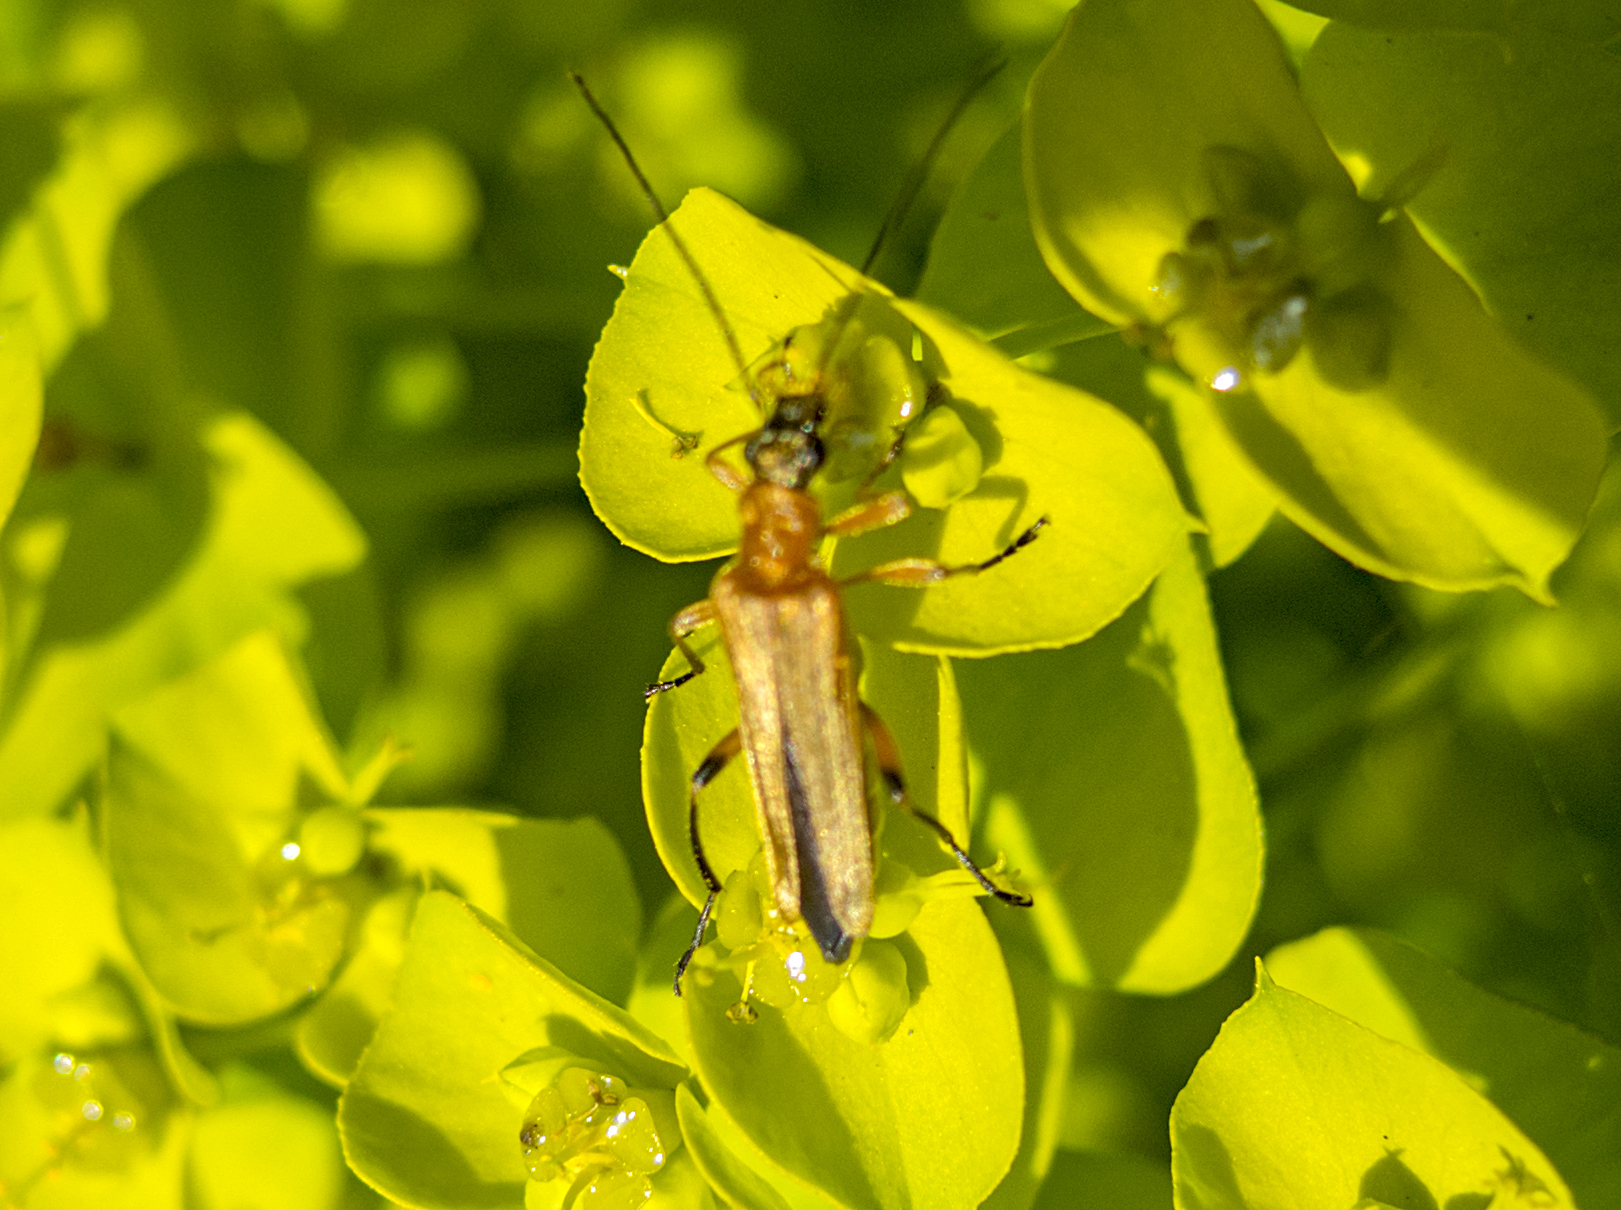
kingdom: Animalia
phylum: Arthropoda
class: Insecta
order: Coleoptera
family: Oedemeridae
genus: Oedemera
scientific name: Oedemera podagrariae
